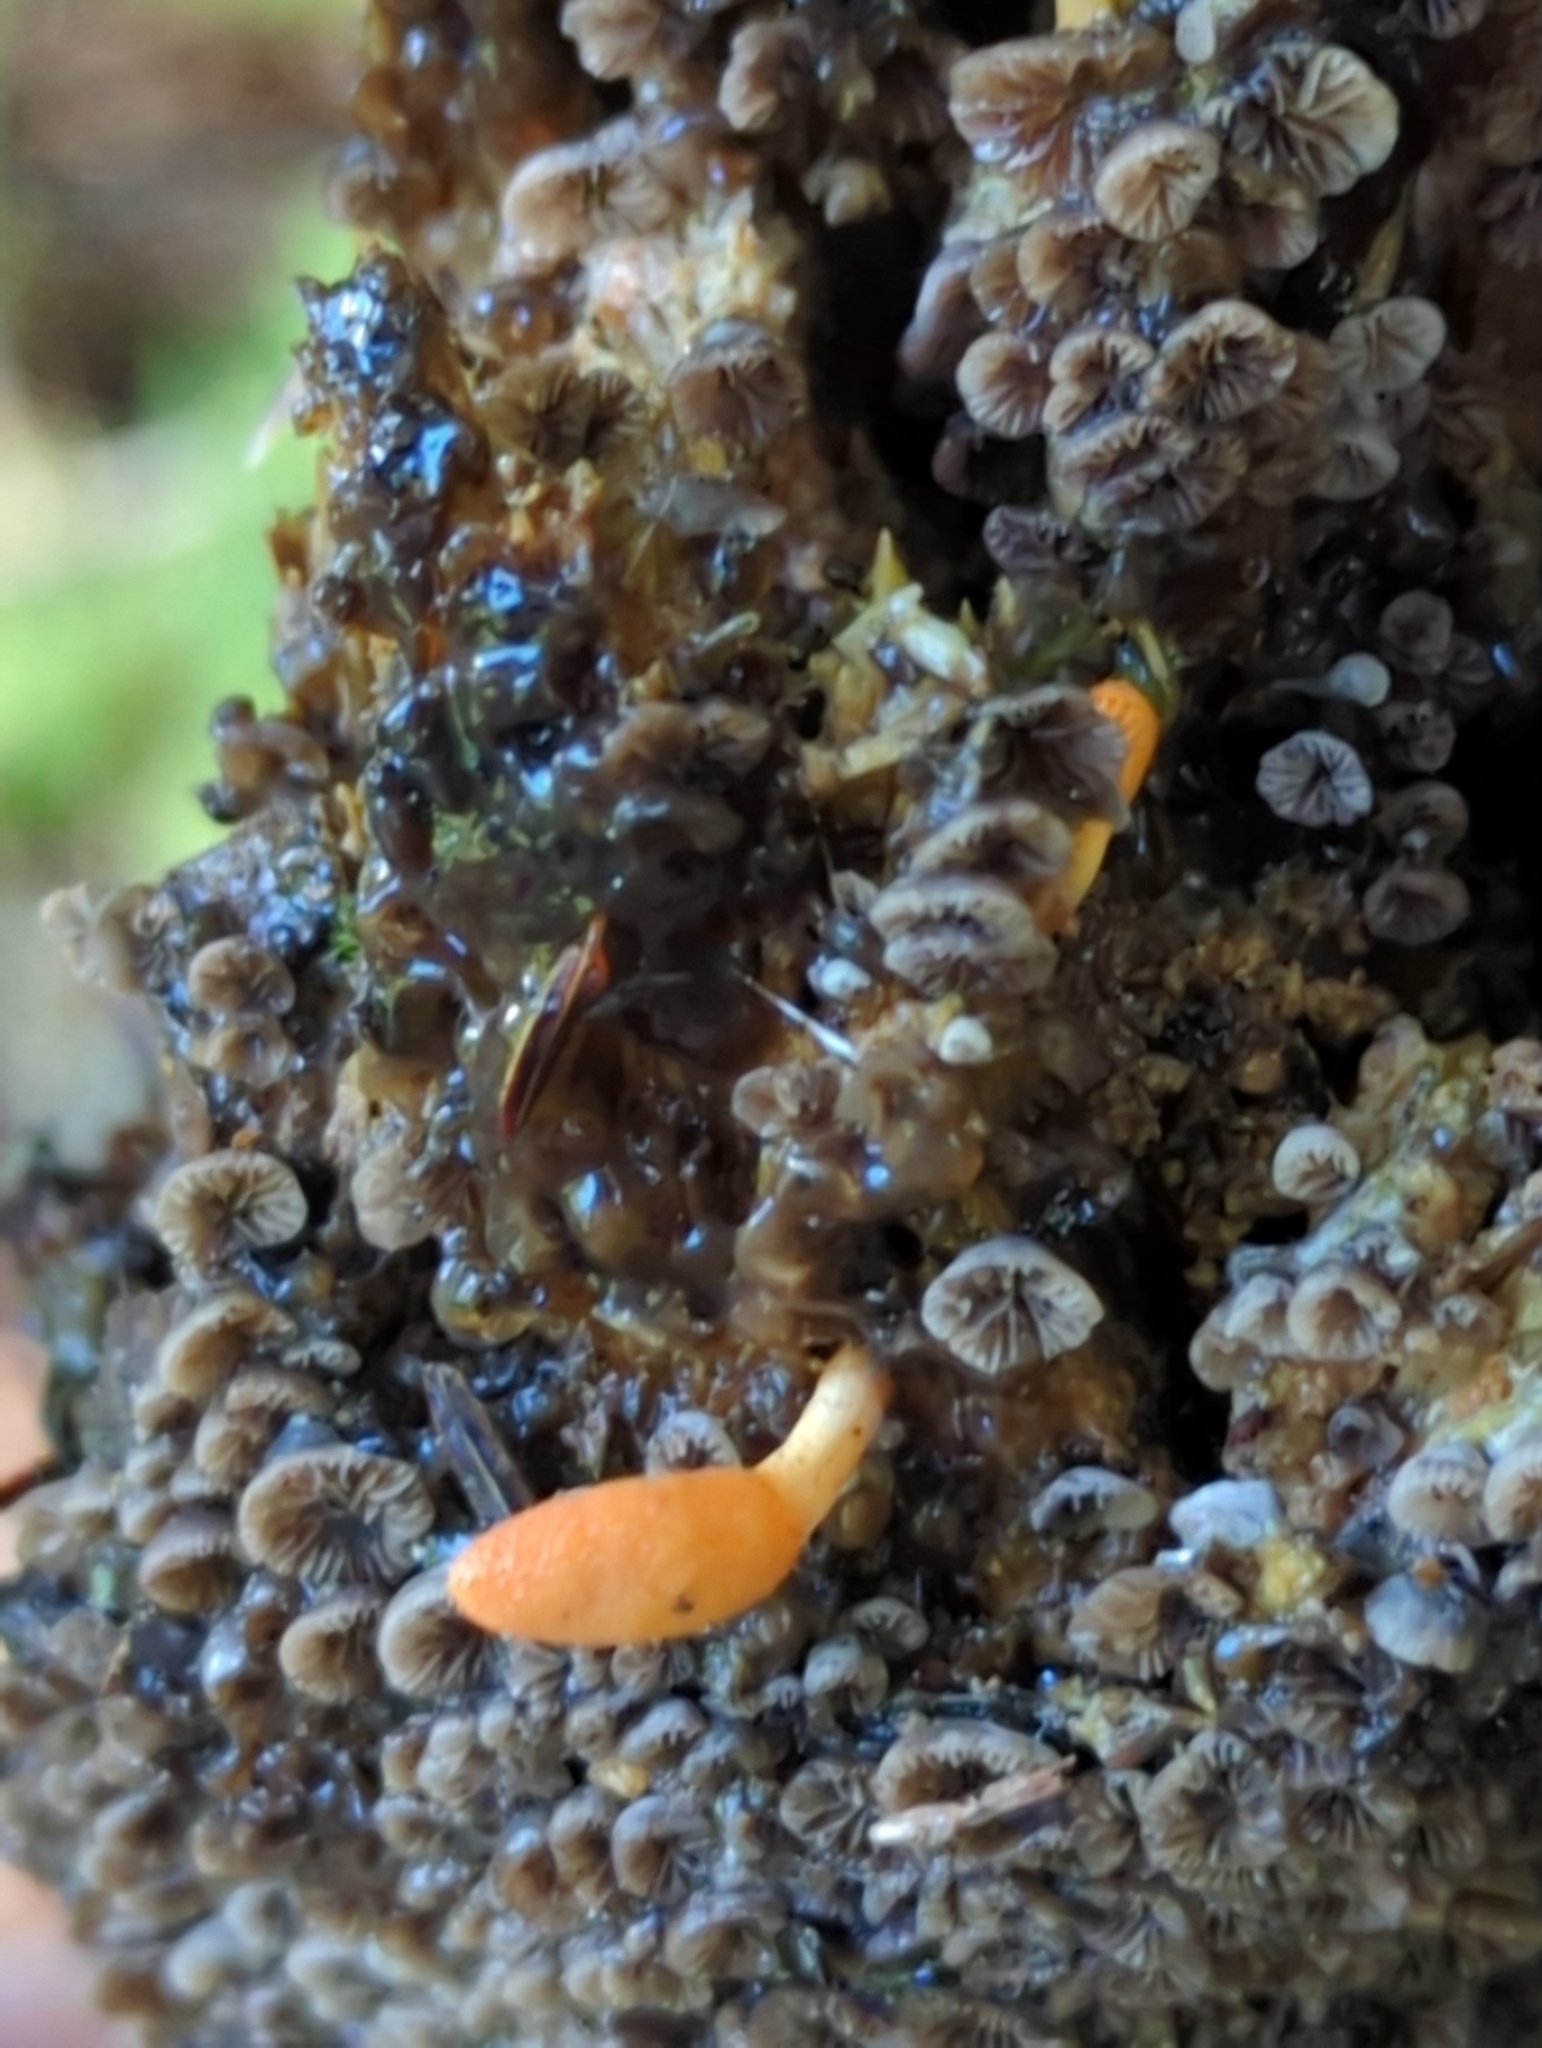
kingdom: Fungi
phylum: Ascomycota
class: Sordariomycetes
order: Hypocreales
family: Cordycipitaceae
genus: Cordyceps
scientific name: Cordyceps militaris
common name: Scarlet caterpillar fungus
